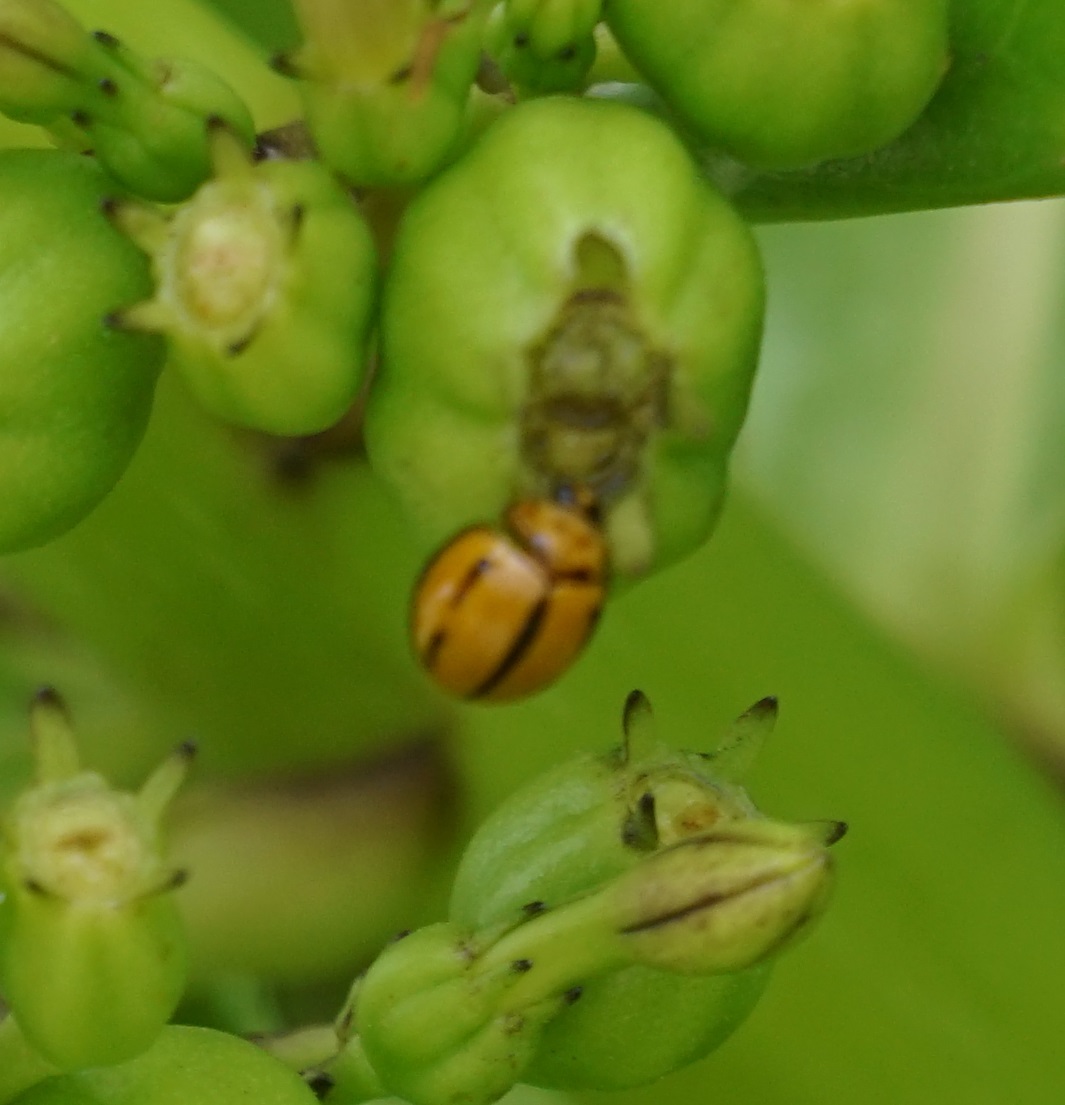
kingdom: Animalia
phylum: Arthropoda
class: Insecta
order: Coleoptera
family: Coccinellidae
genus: Coelophora
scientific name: Coelophora inaequalis
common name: Common australian lady beetle
